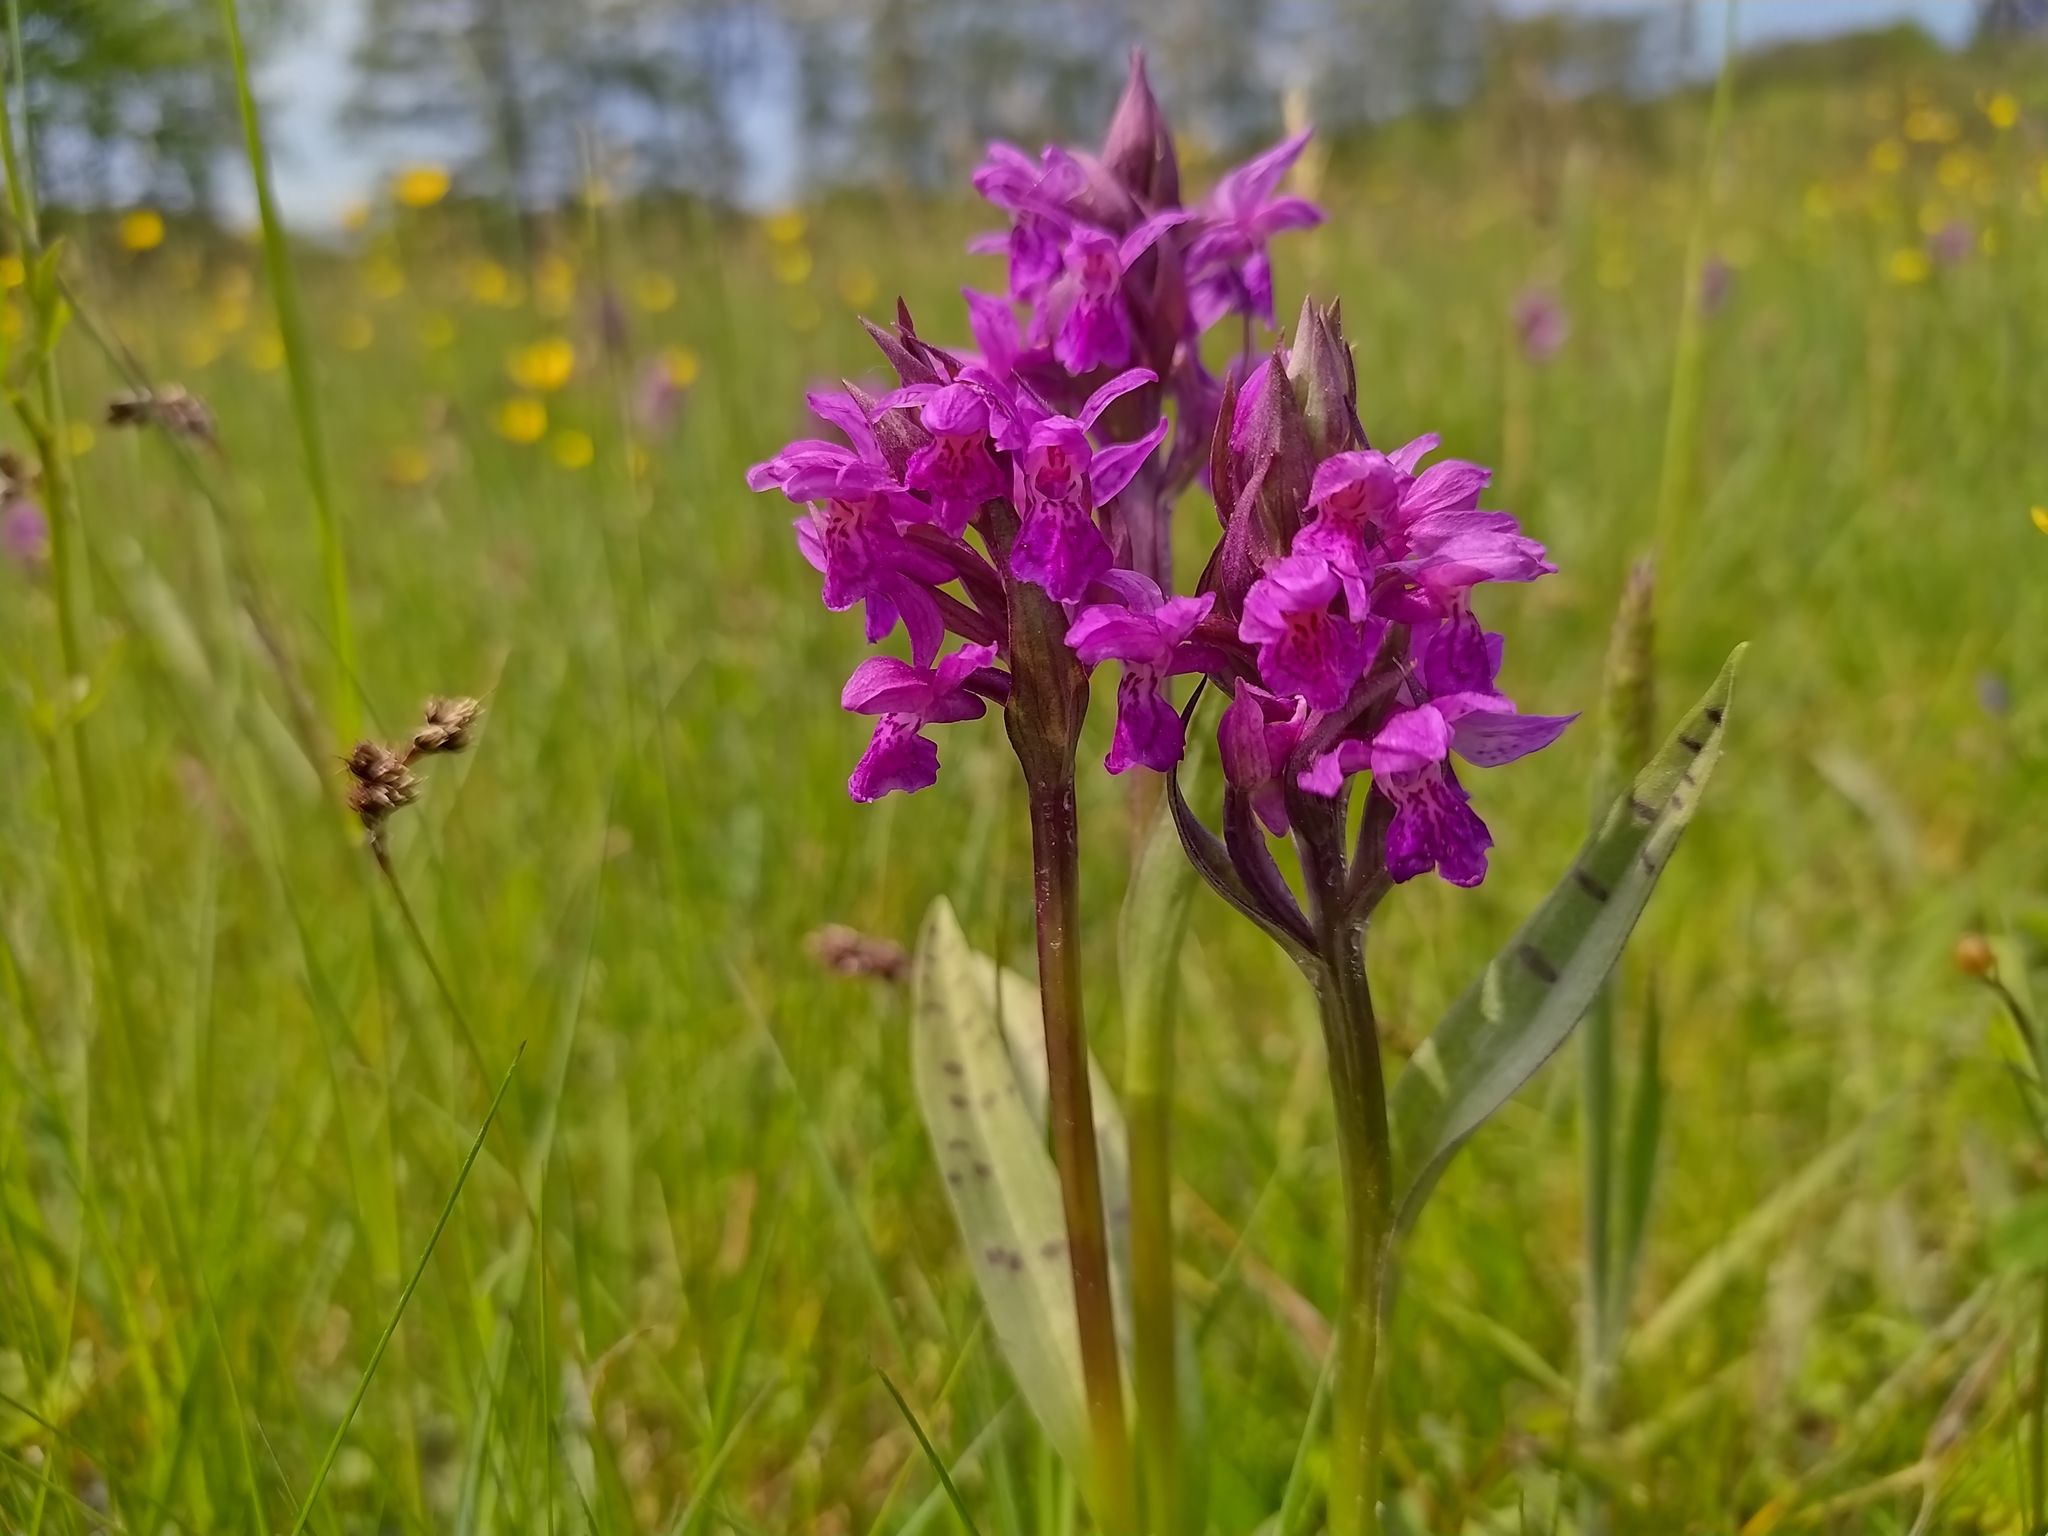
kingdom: Plantae
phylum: Tracheophyta
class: Liliopsida
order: Asparagales
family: Orchidaceae
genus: Dactylorhiza
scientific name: Dactylorhiza majalis
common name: Marsh orchid
